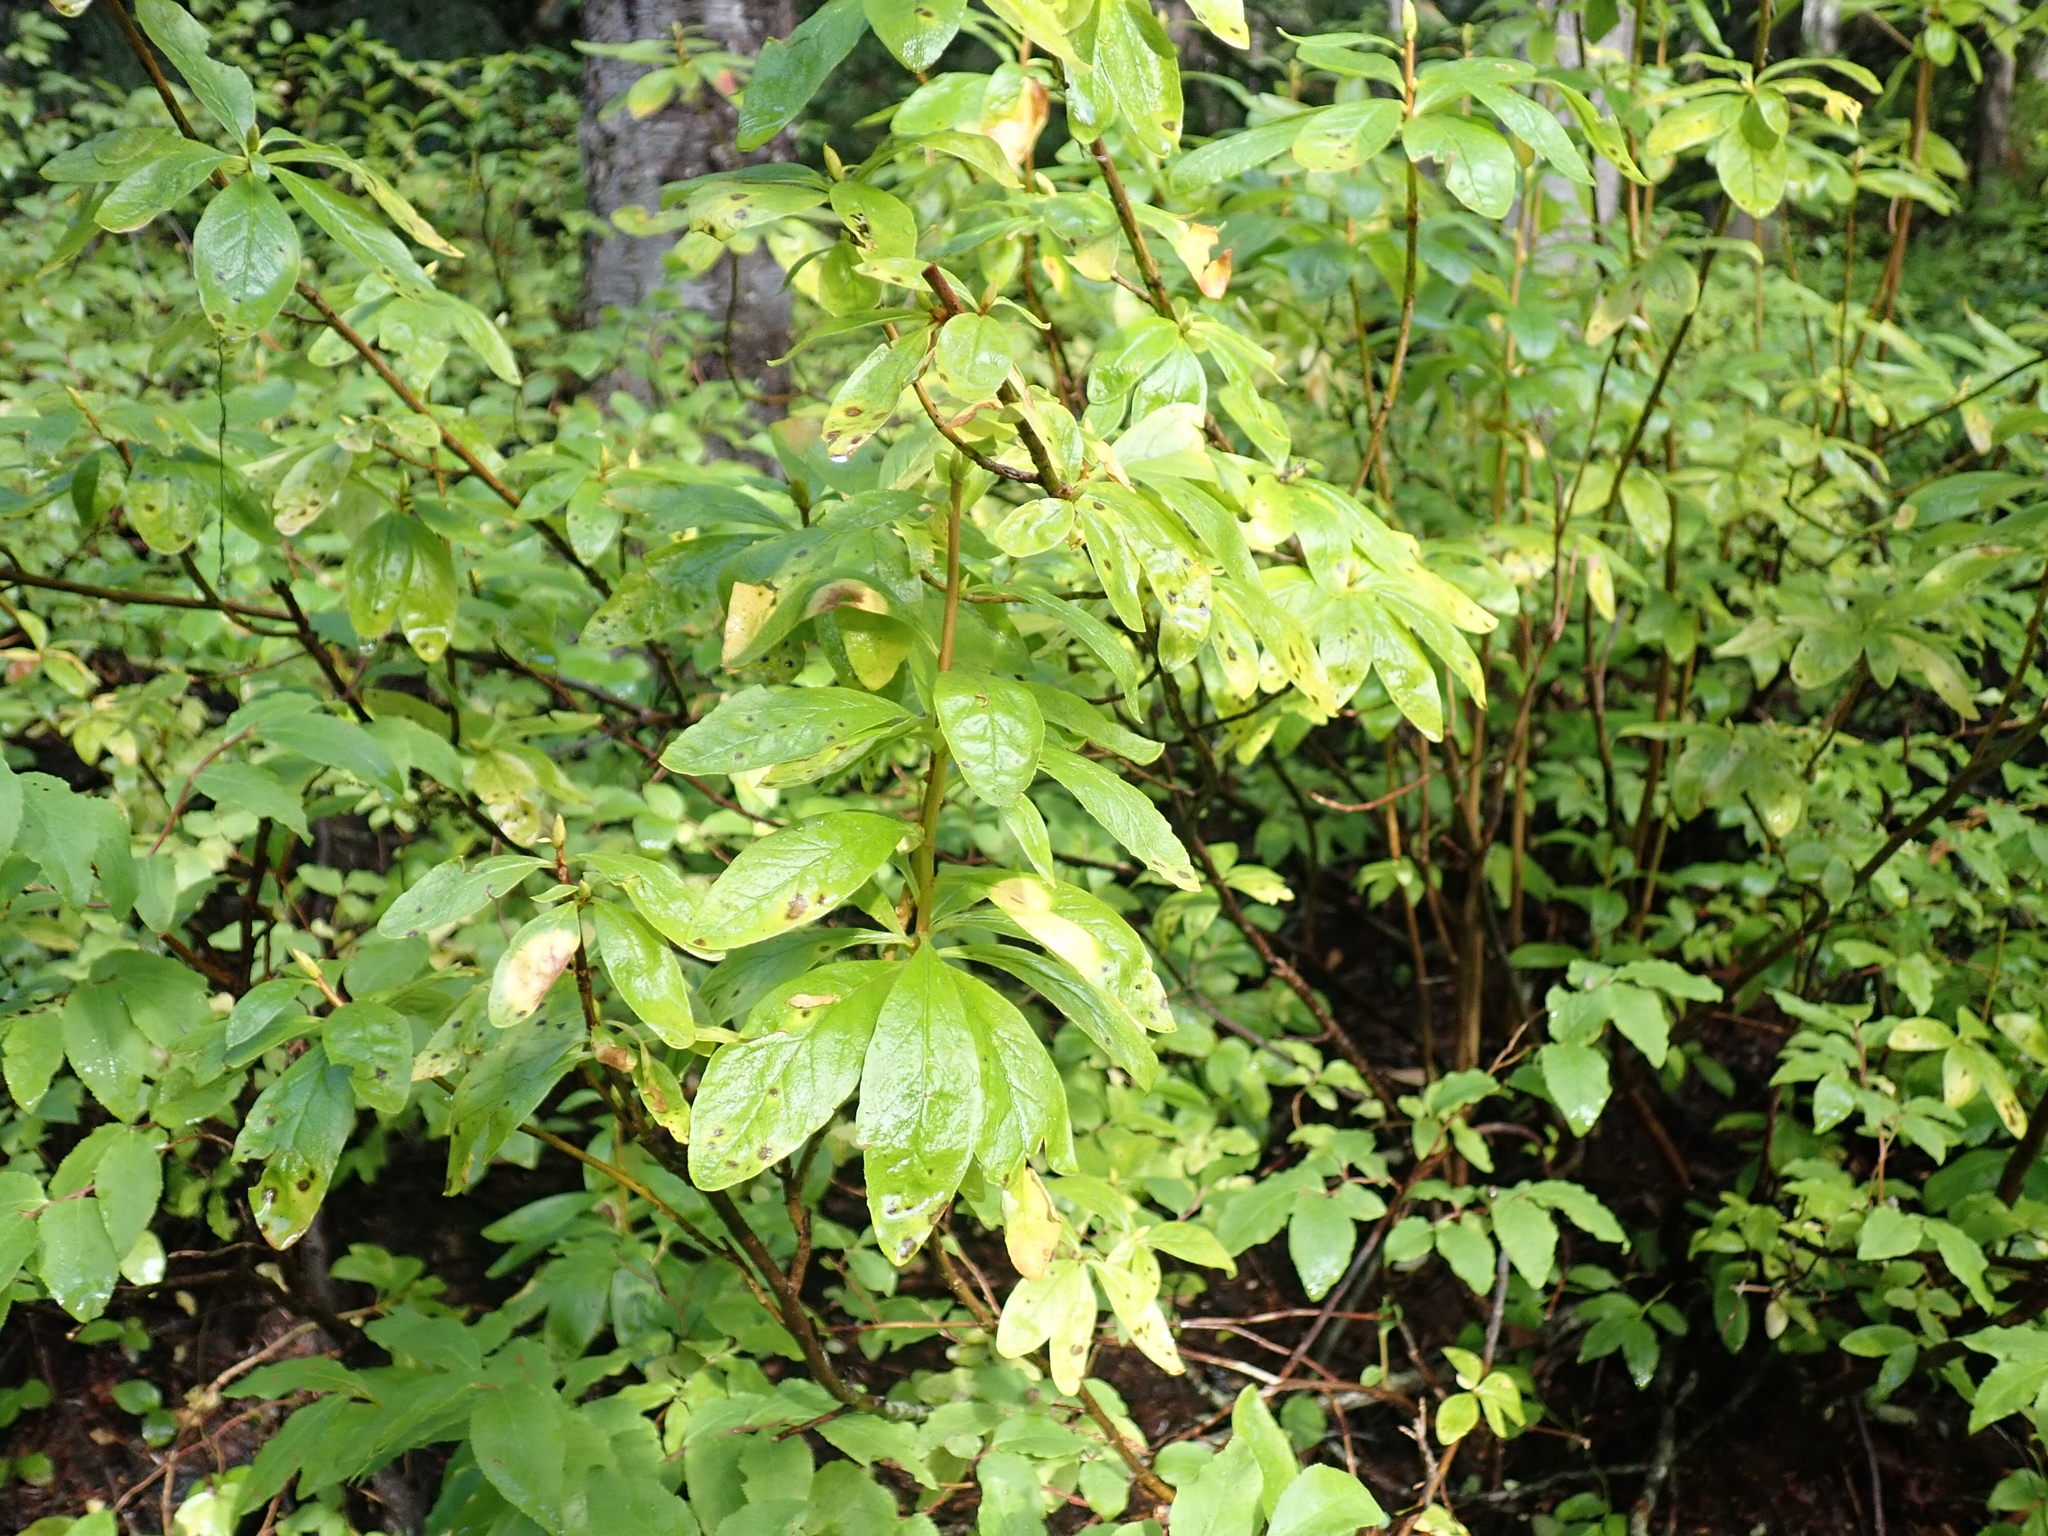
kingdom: Plantae
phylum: Tracheophyta
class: Magnoliopsida
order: Ericales
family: Ericaceae
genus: Rhododendron
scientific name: Rhododendron albiflorum
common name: White rhododendron
